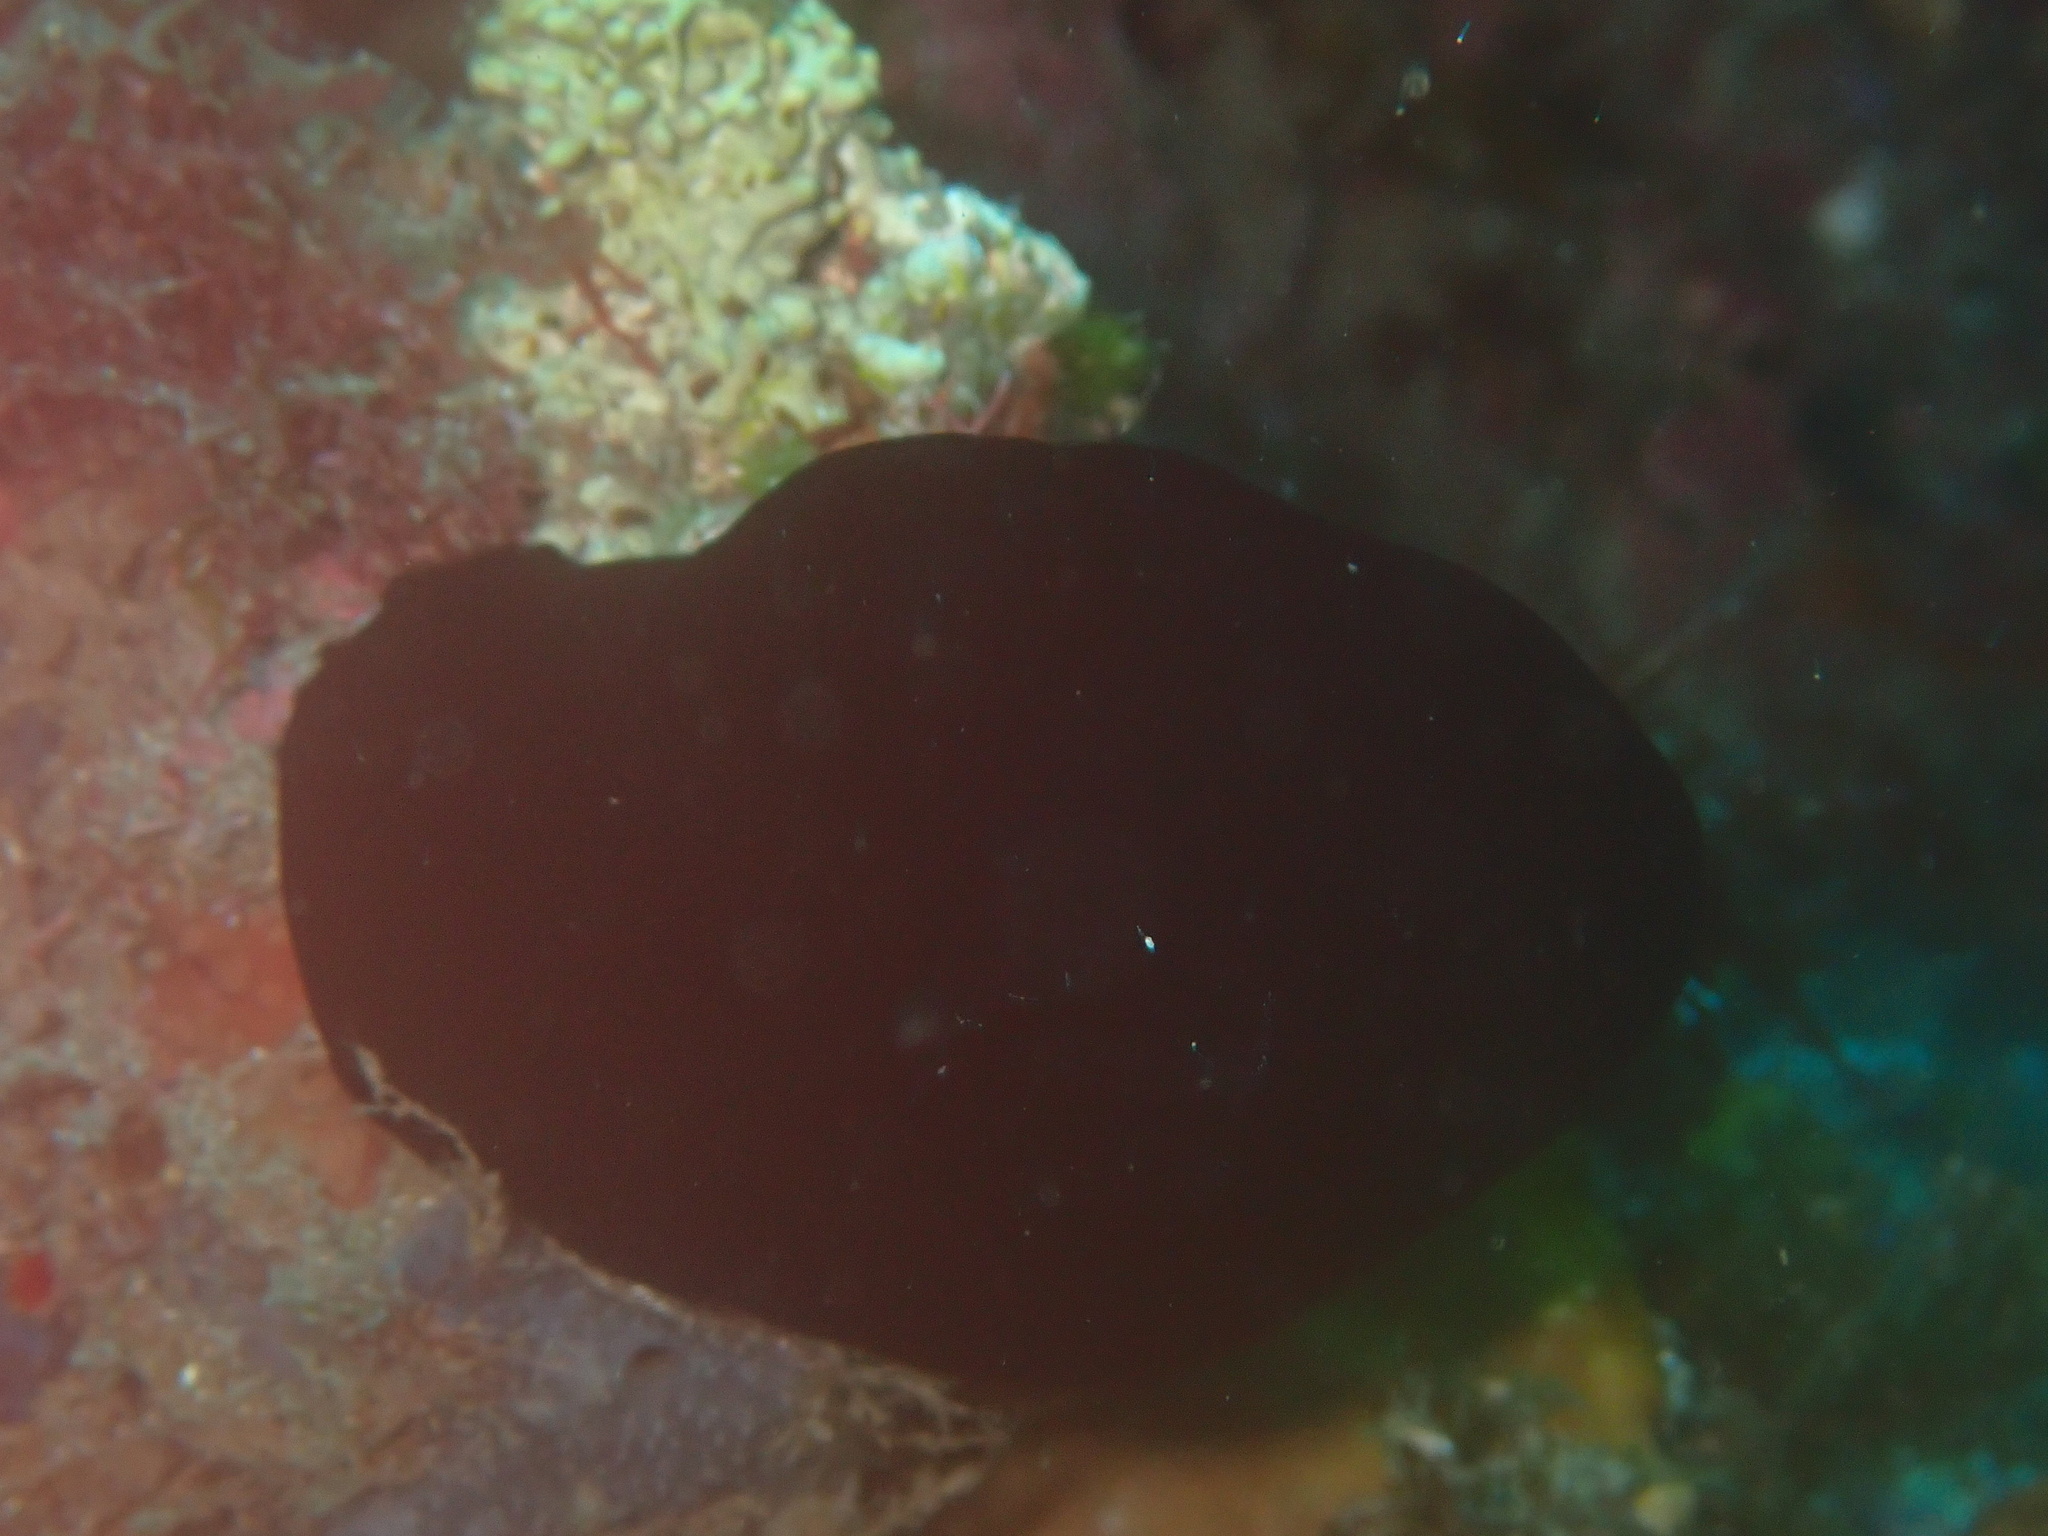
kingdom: Animalia
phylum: Chordata
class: Ascidiacea
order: Phlebobranchia
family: Ascidiidae
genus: Phallusia
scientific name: Phallusia nigra
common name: Black tunicate
